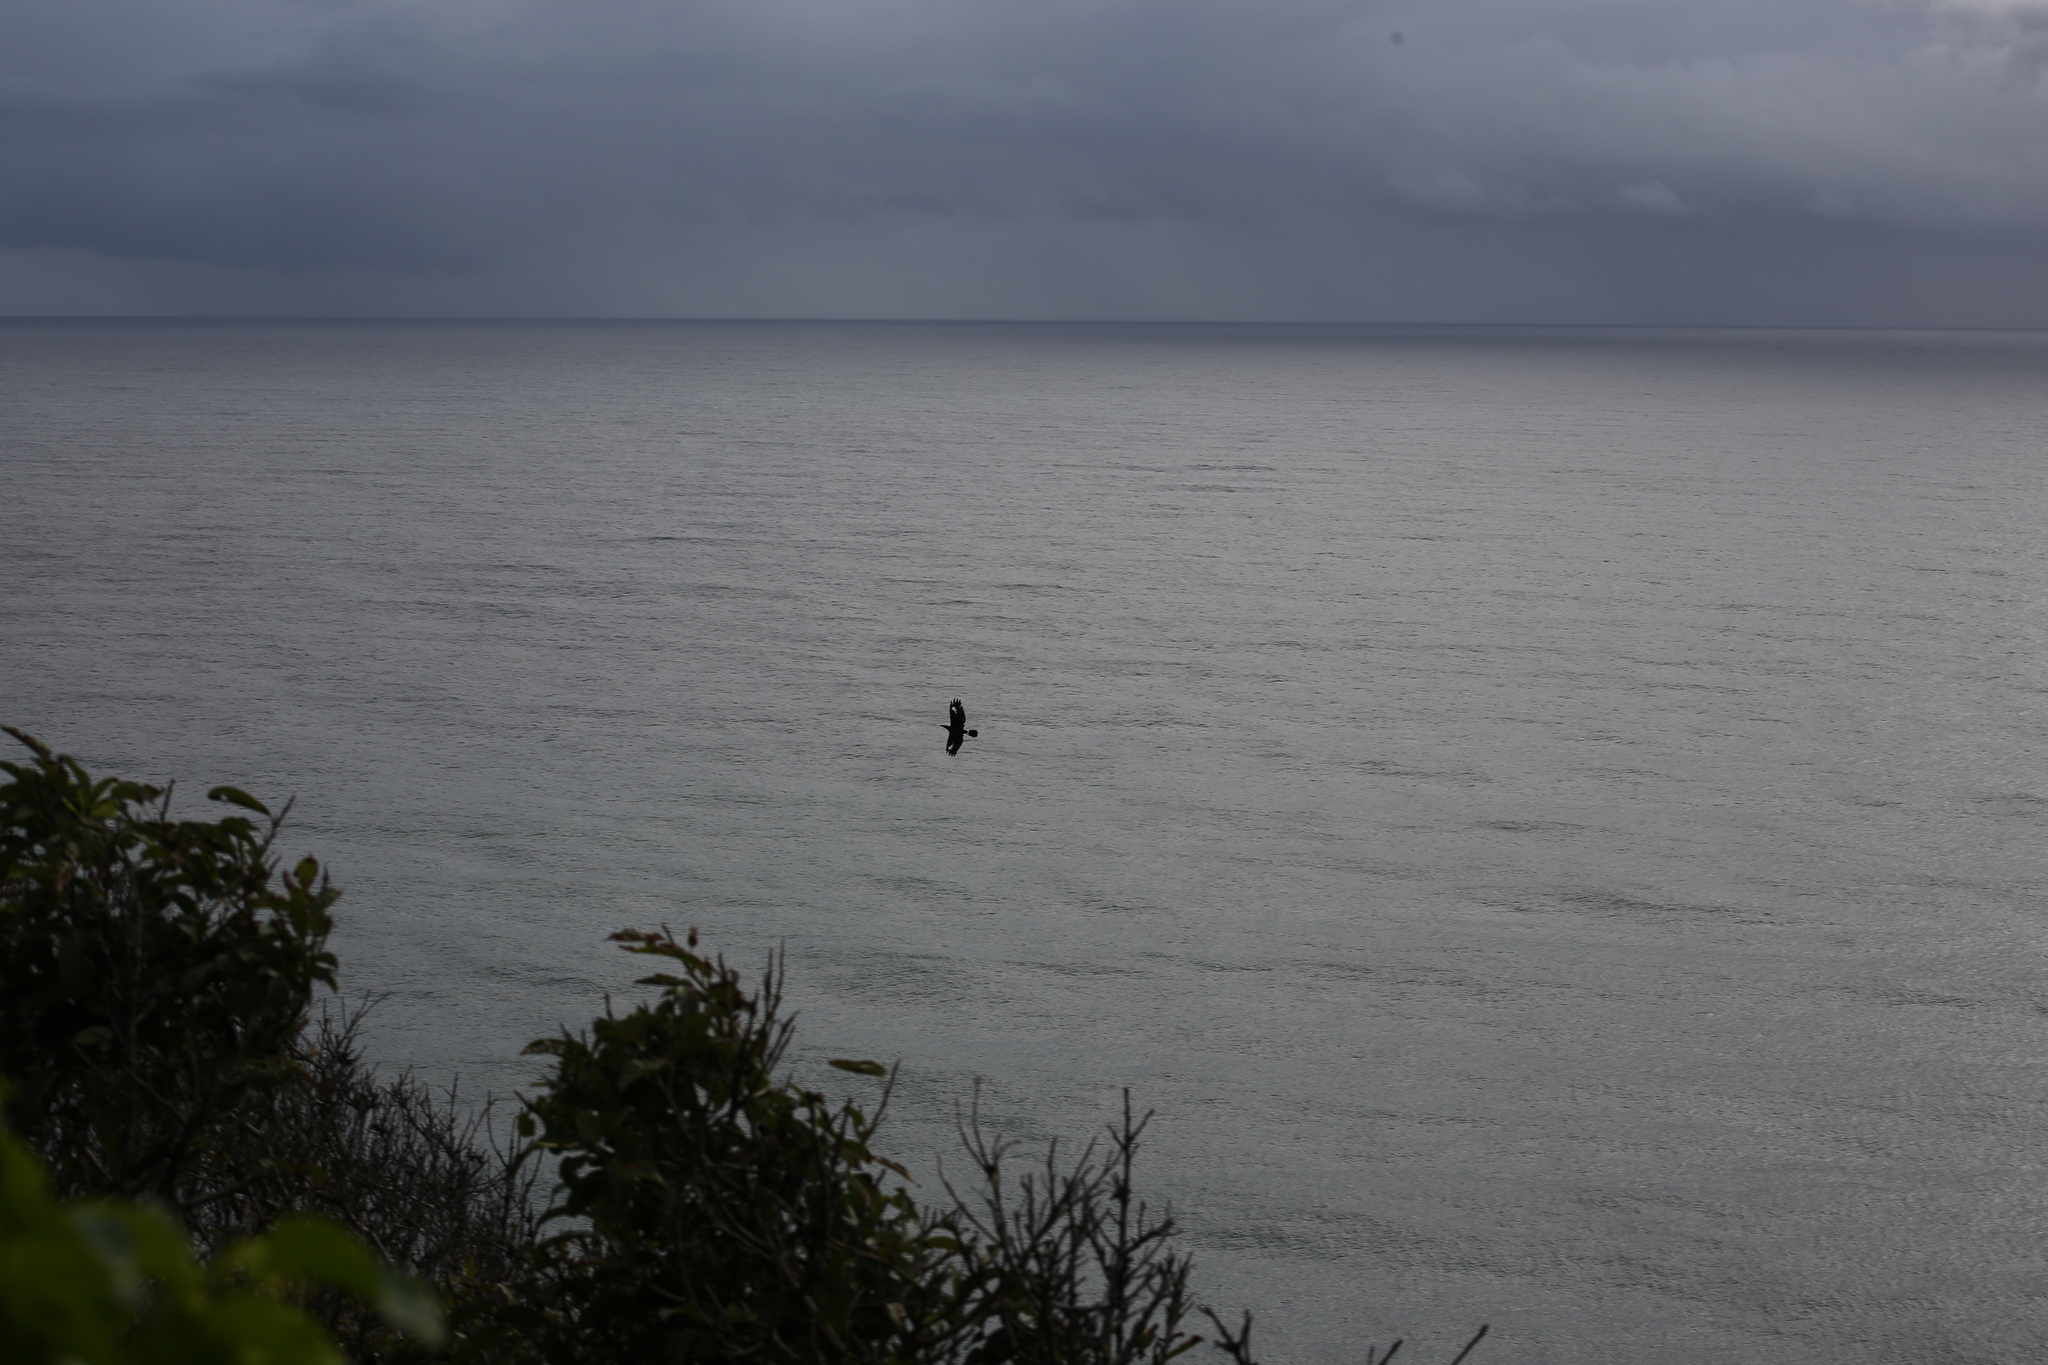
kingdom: Animalia
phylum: Chordata
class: Aves
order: Passeriformes
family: Cracticidae
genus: Strepera
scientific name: Strepera graculina
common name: Pied currawong
